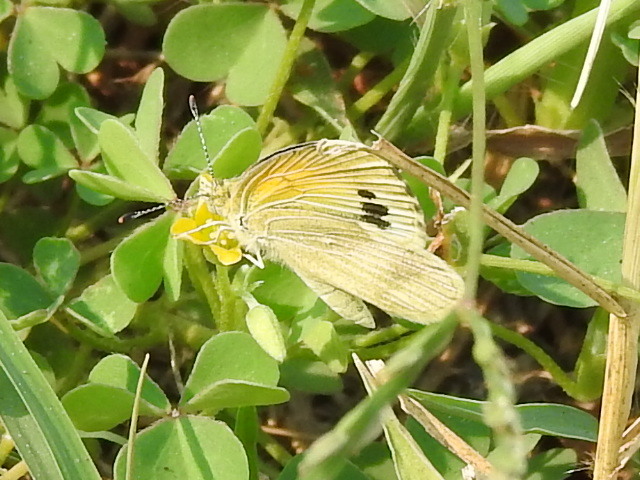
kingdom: Animalia
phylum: Arthropoda
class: Insecta
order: Lepidoptera
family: Pieridae
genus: Nathalis
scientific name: Nathalis iole
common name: Dainty sulphur
